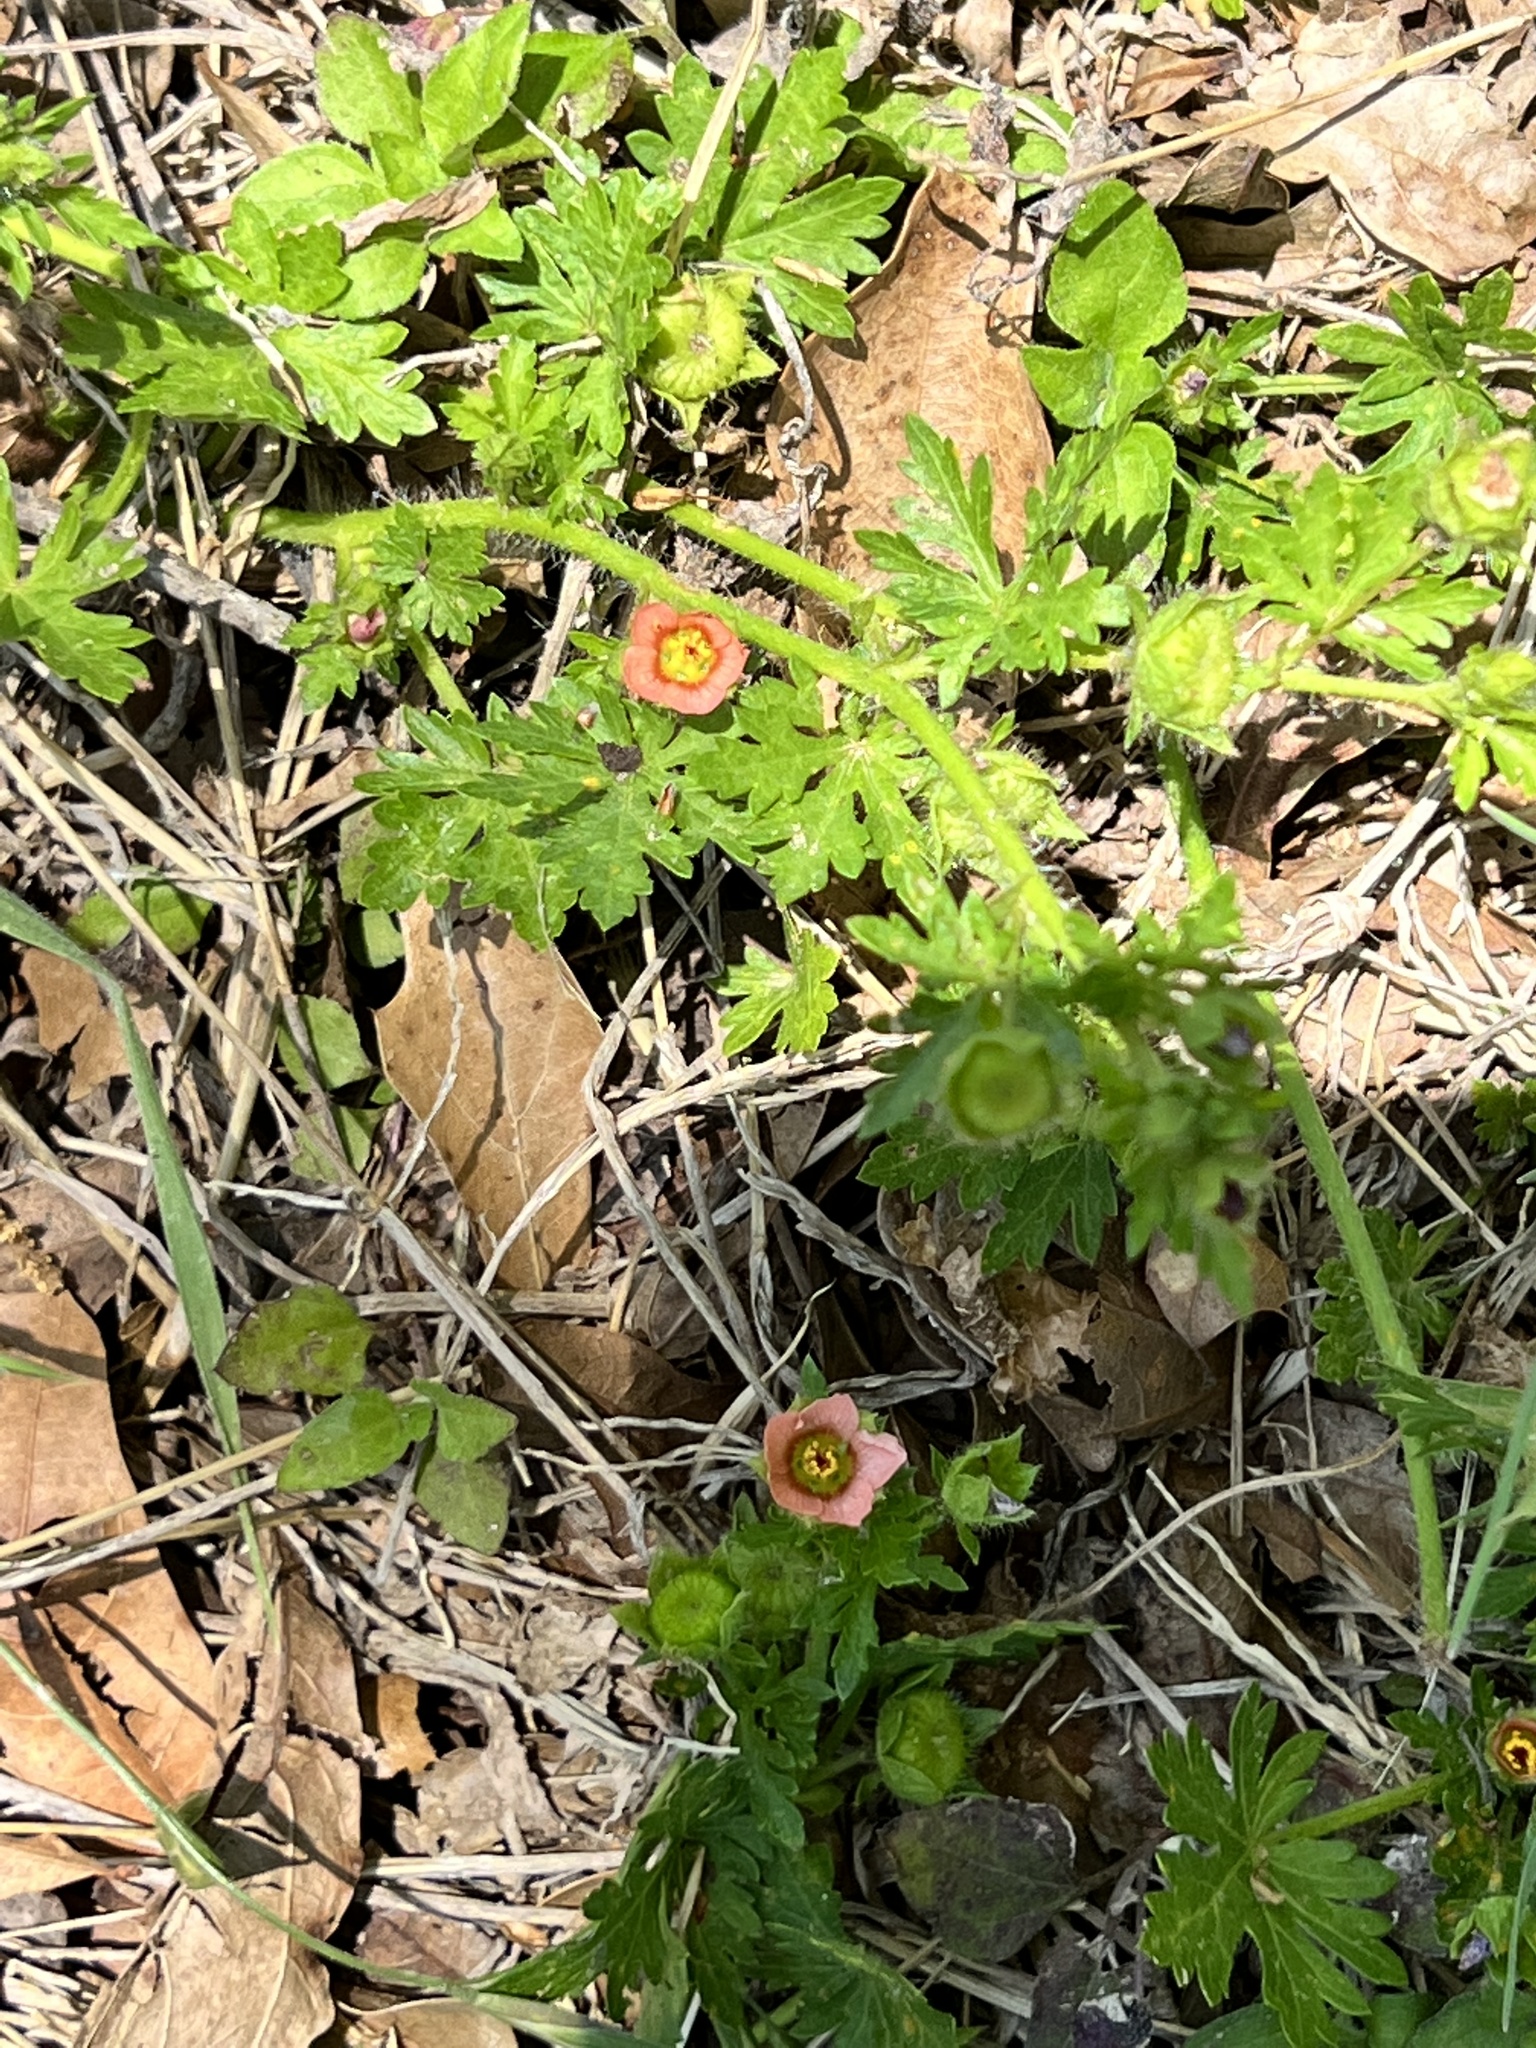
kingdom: Plantae
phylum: Tracheophyta
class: Magnoliopsida
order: Malvales
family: Malvaceae
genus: Modiola
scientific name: Modiola caroliniana
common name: Carolina bristlemallow
